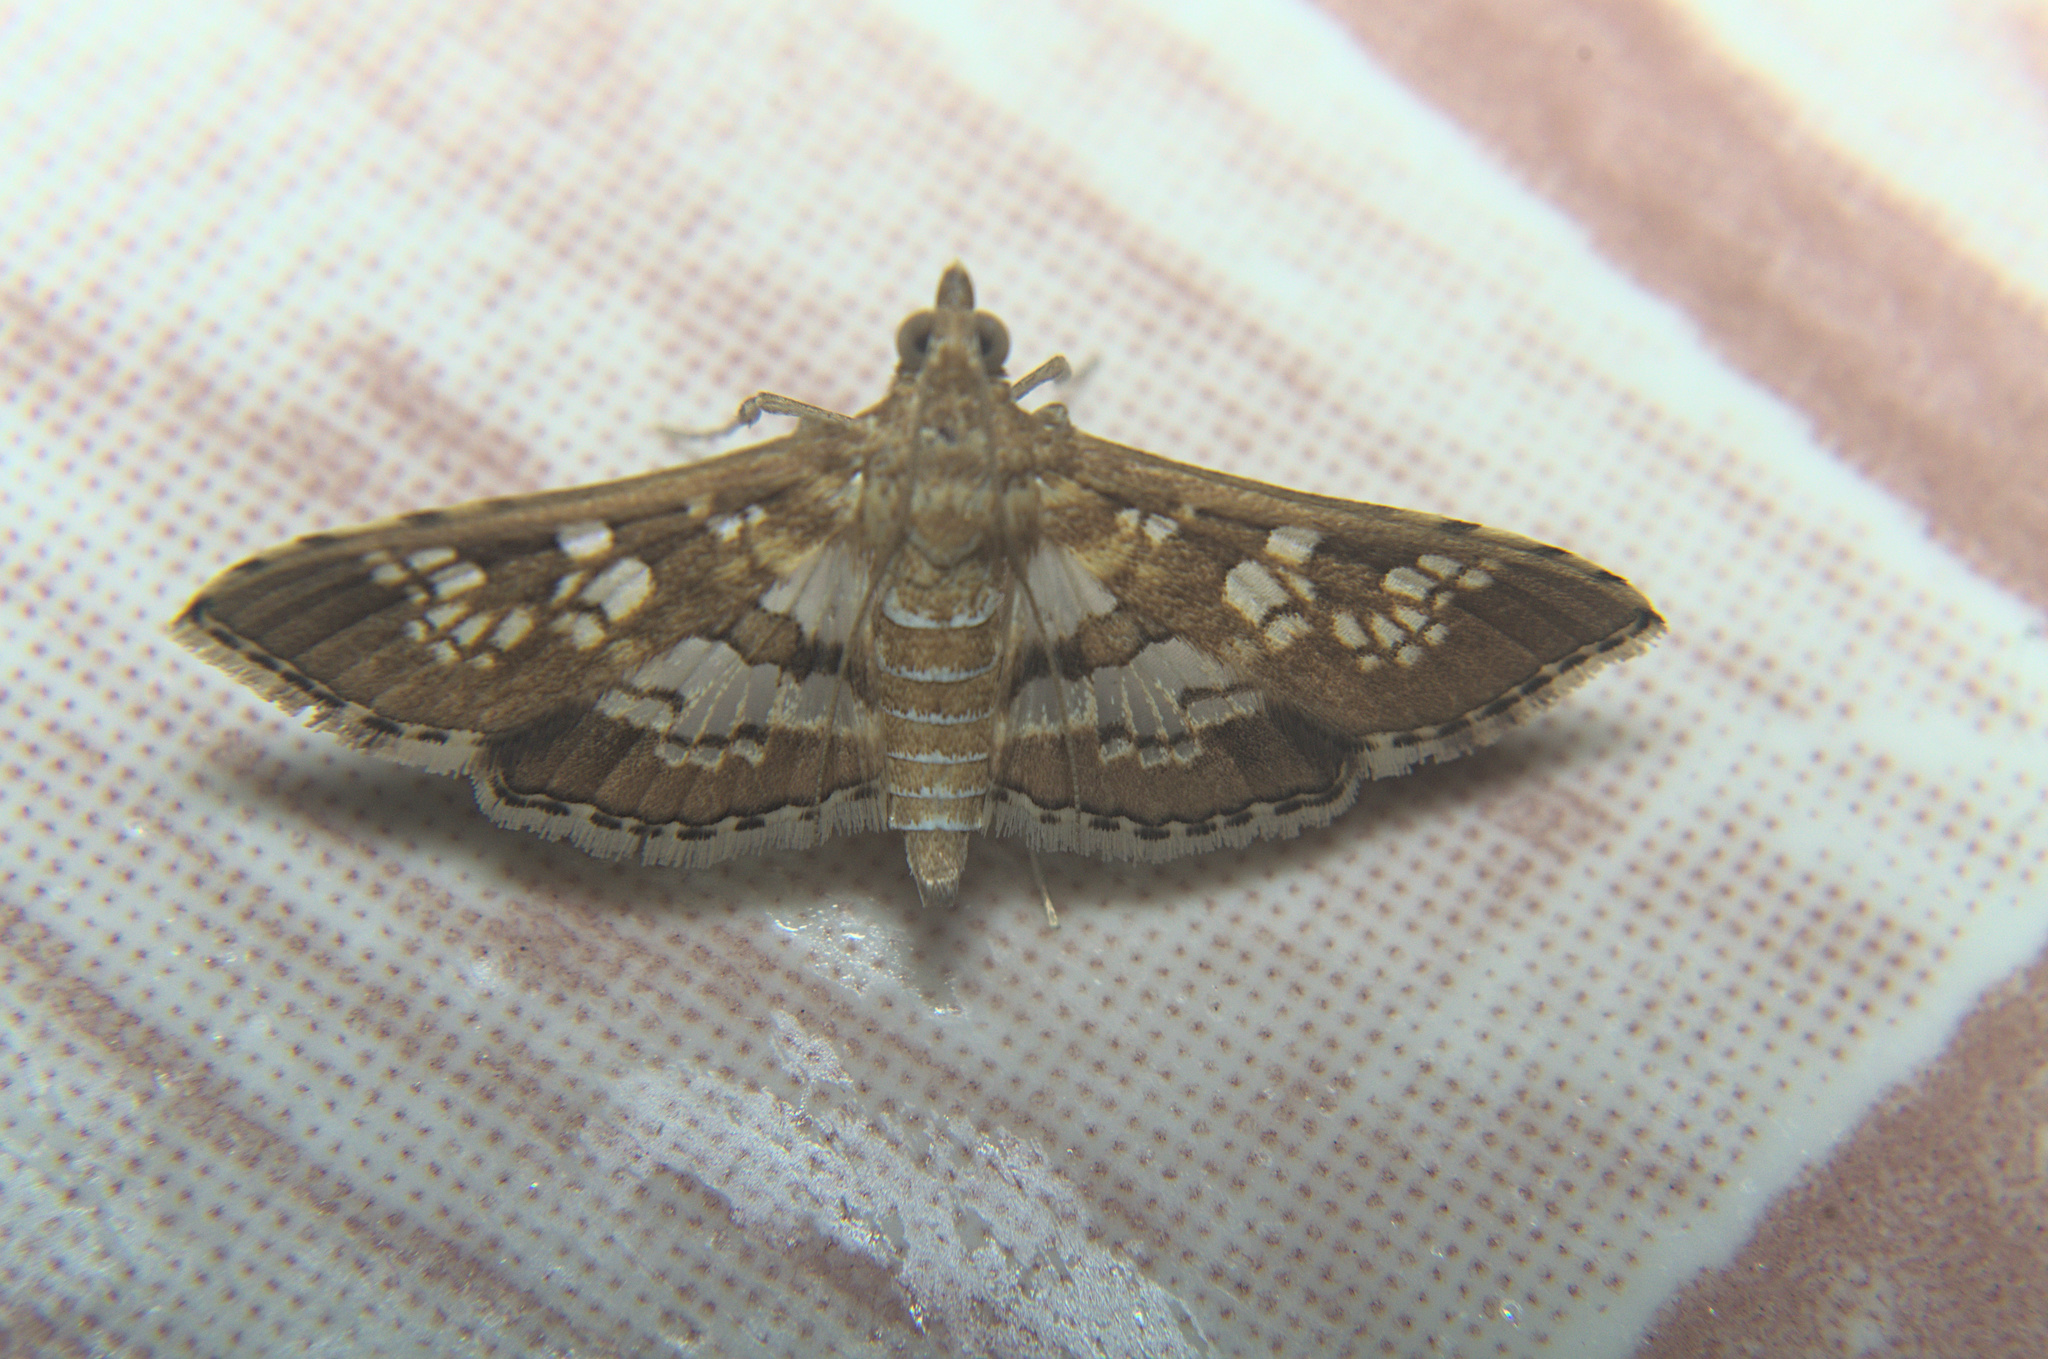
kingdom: Animalia
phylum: Arthropoda
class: Insecta
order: Lepidoptera
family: Crambidae
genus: Sameodes
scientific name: Sameodes cancellalis
